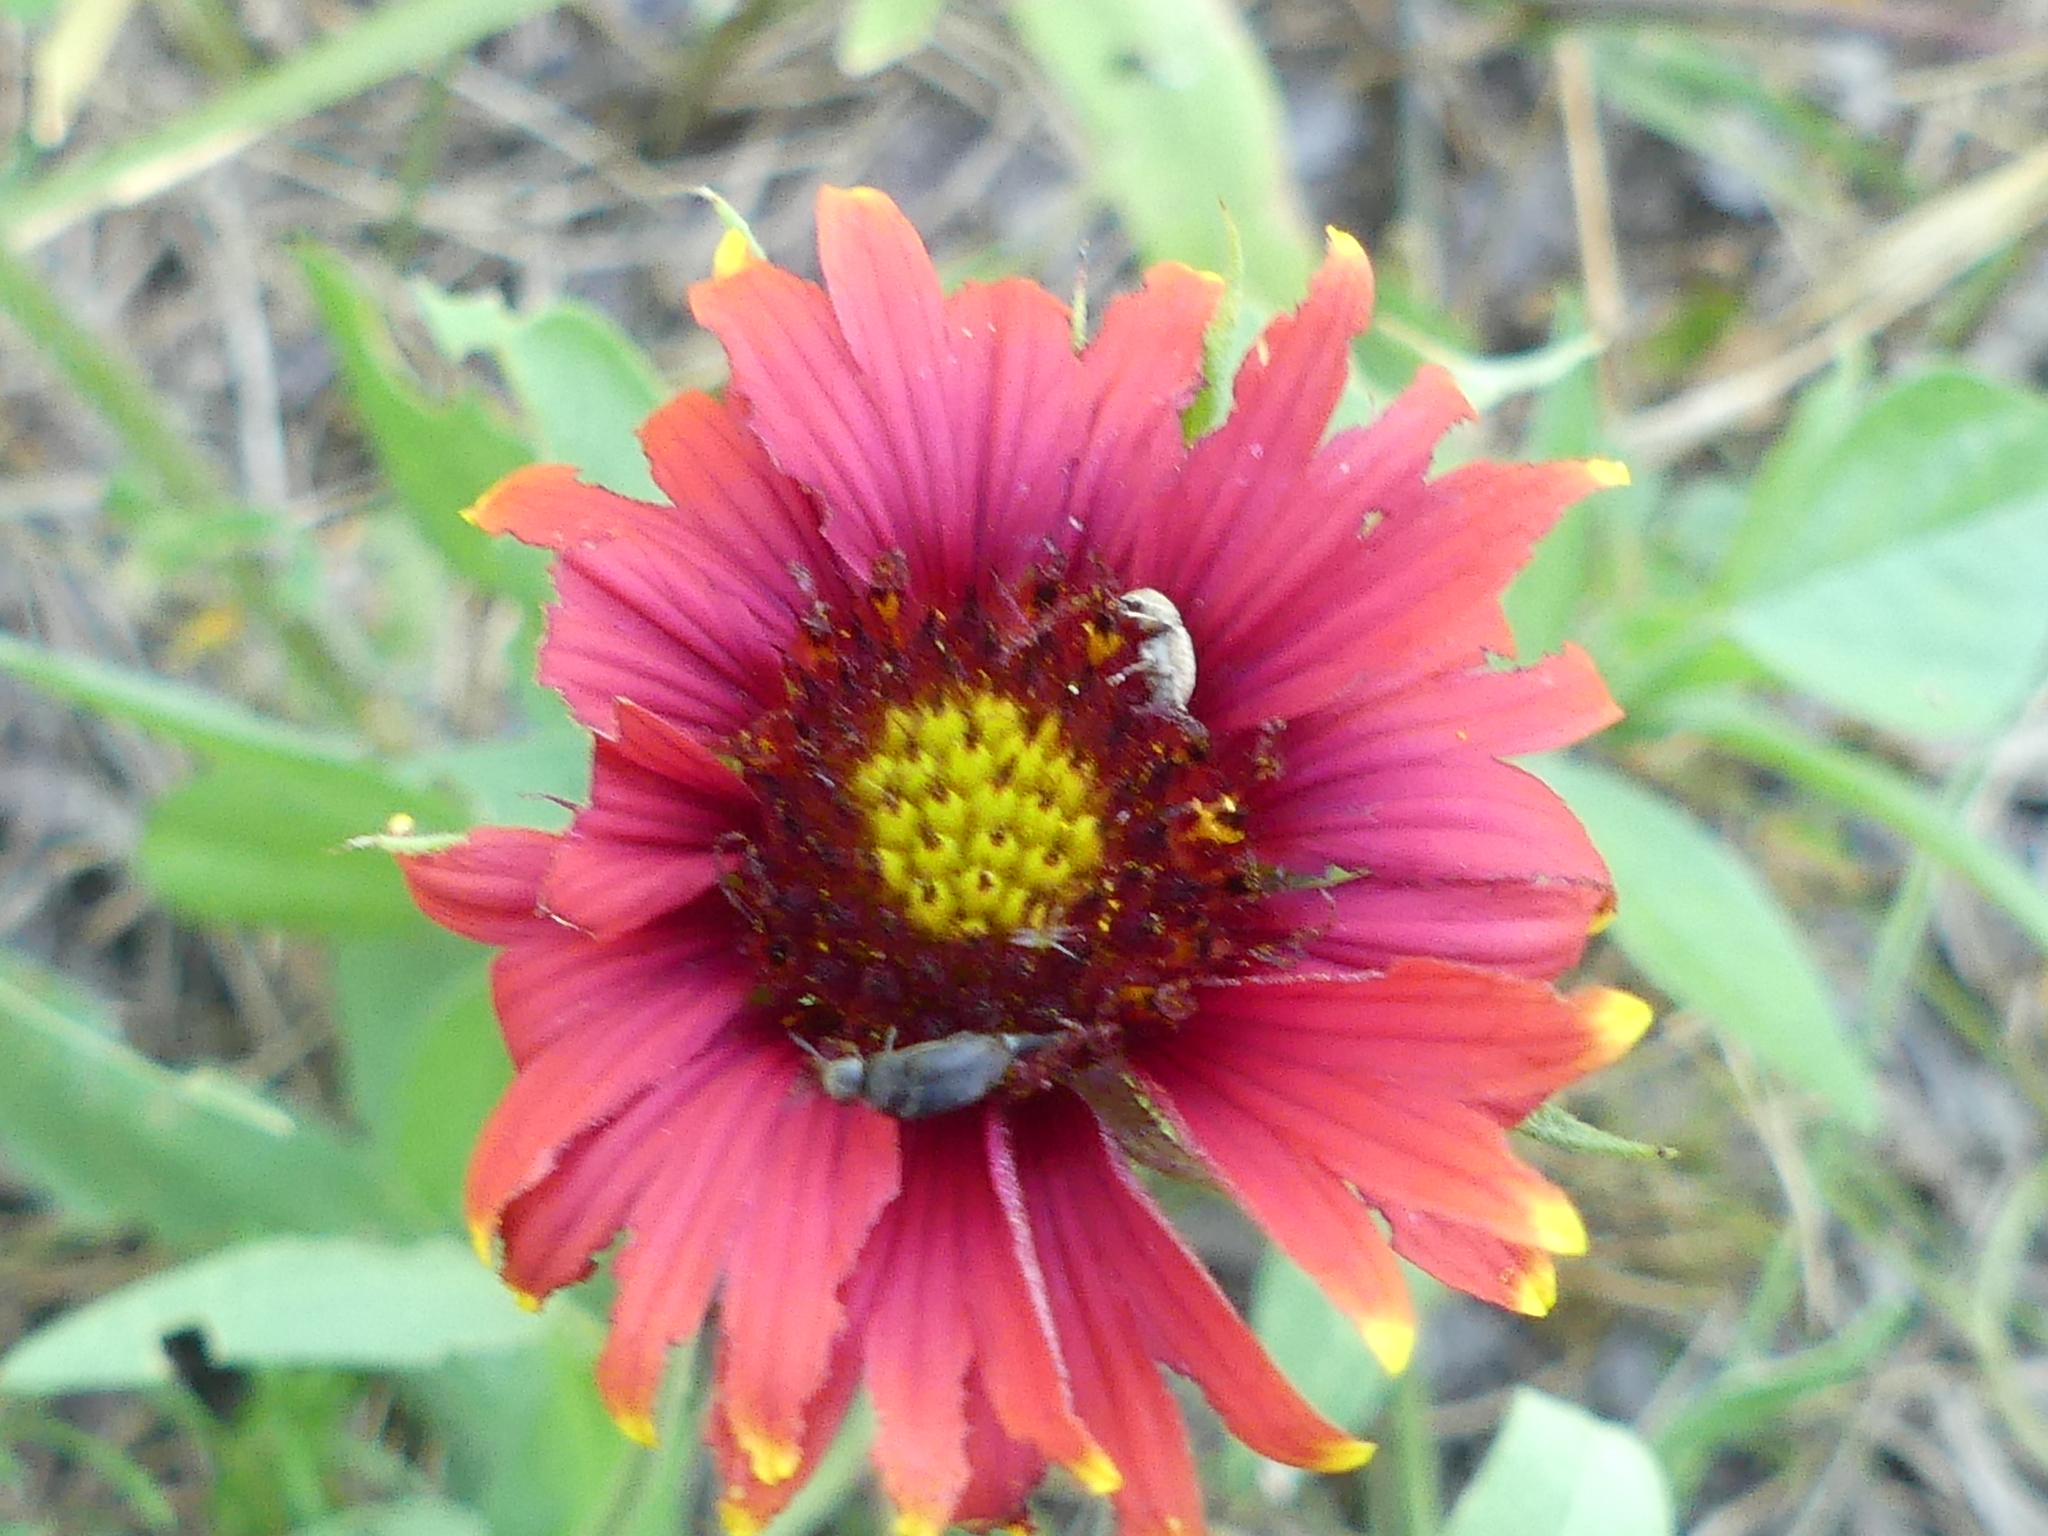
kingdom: Plantae
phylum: Tracheophyta
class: Magnoliopsida
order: Asterales
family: Asteraceae
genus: Gaillardia
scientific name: Gaillardia pulchella
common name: Firewheel
